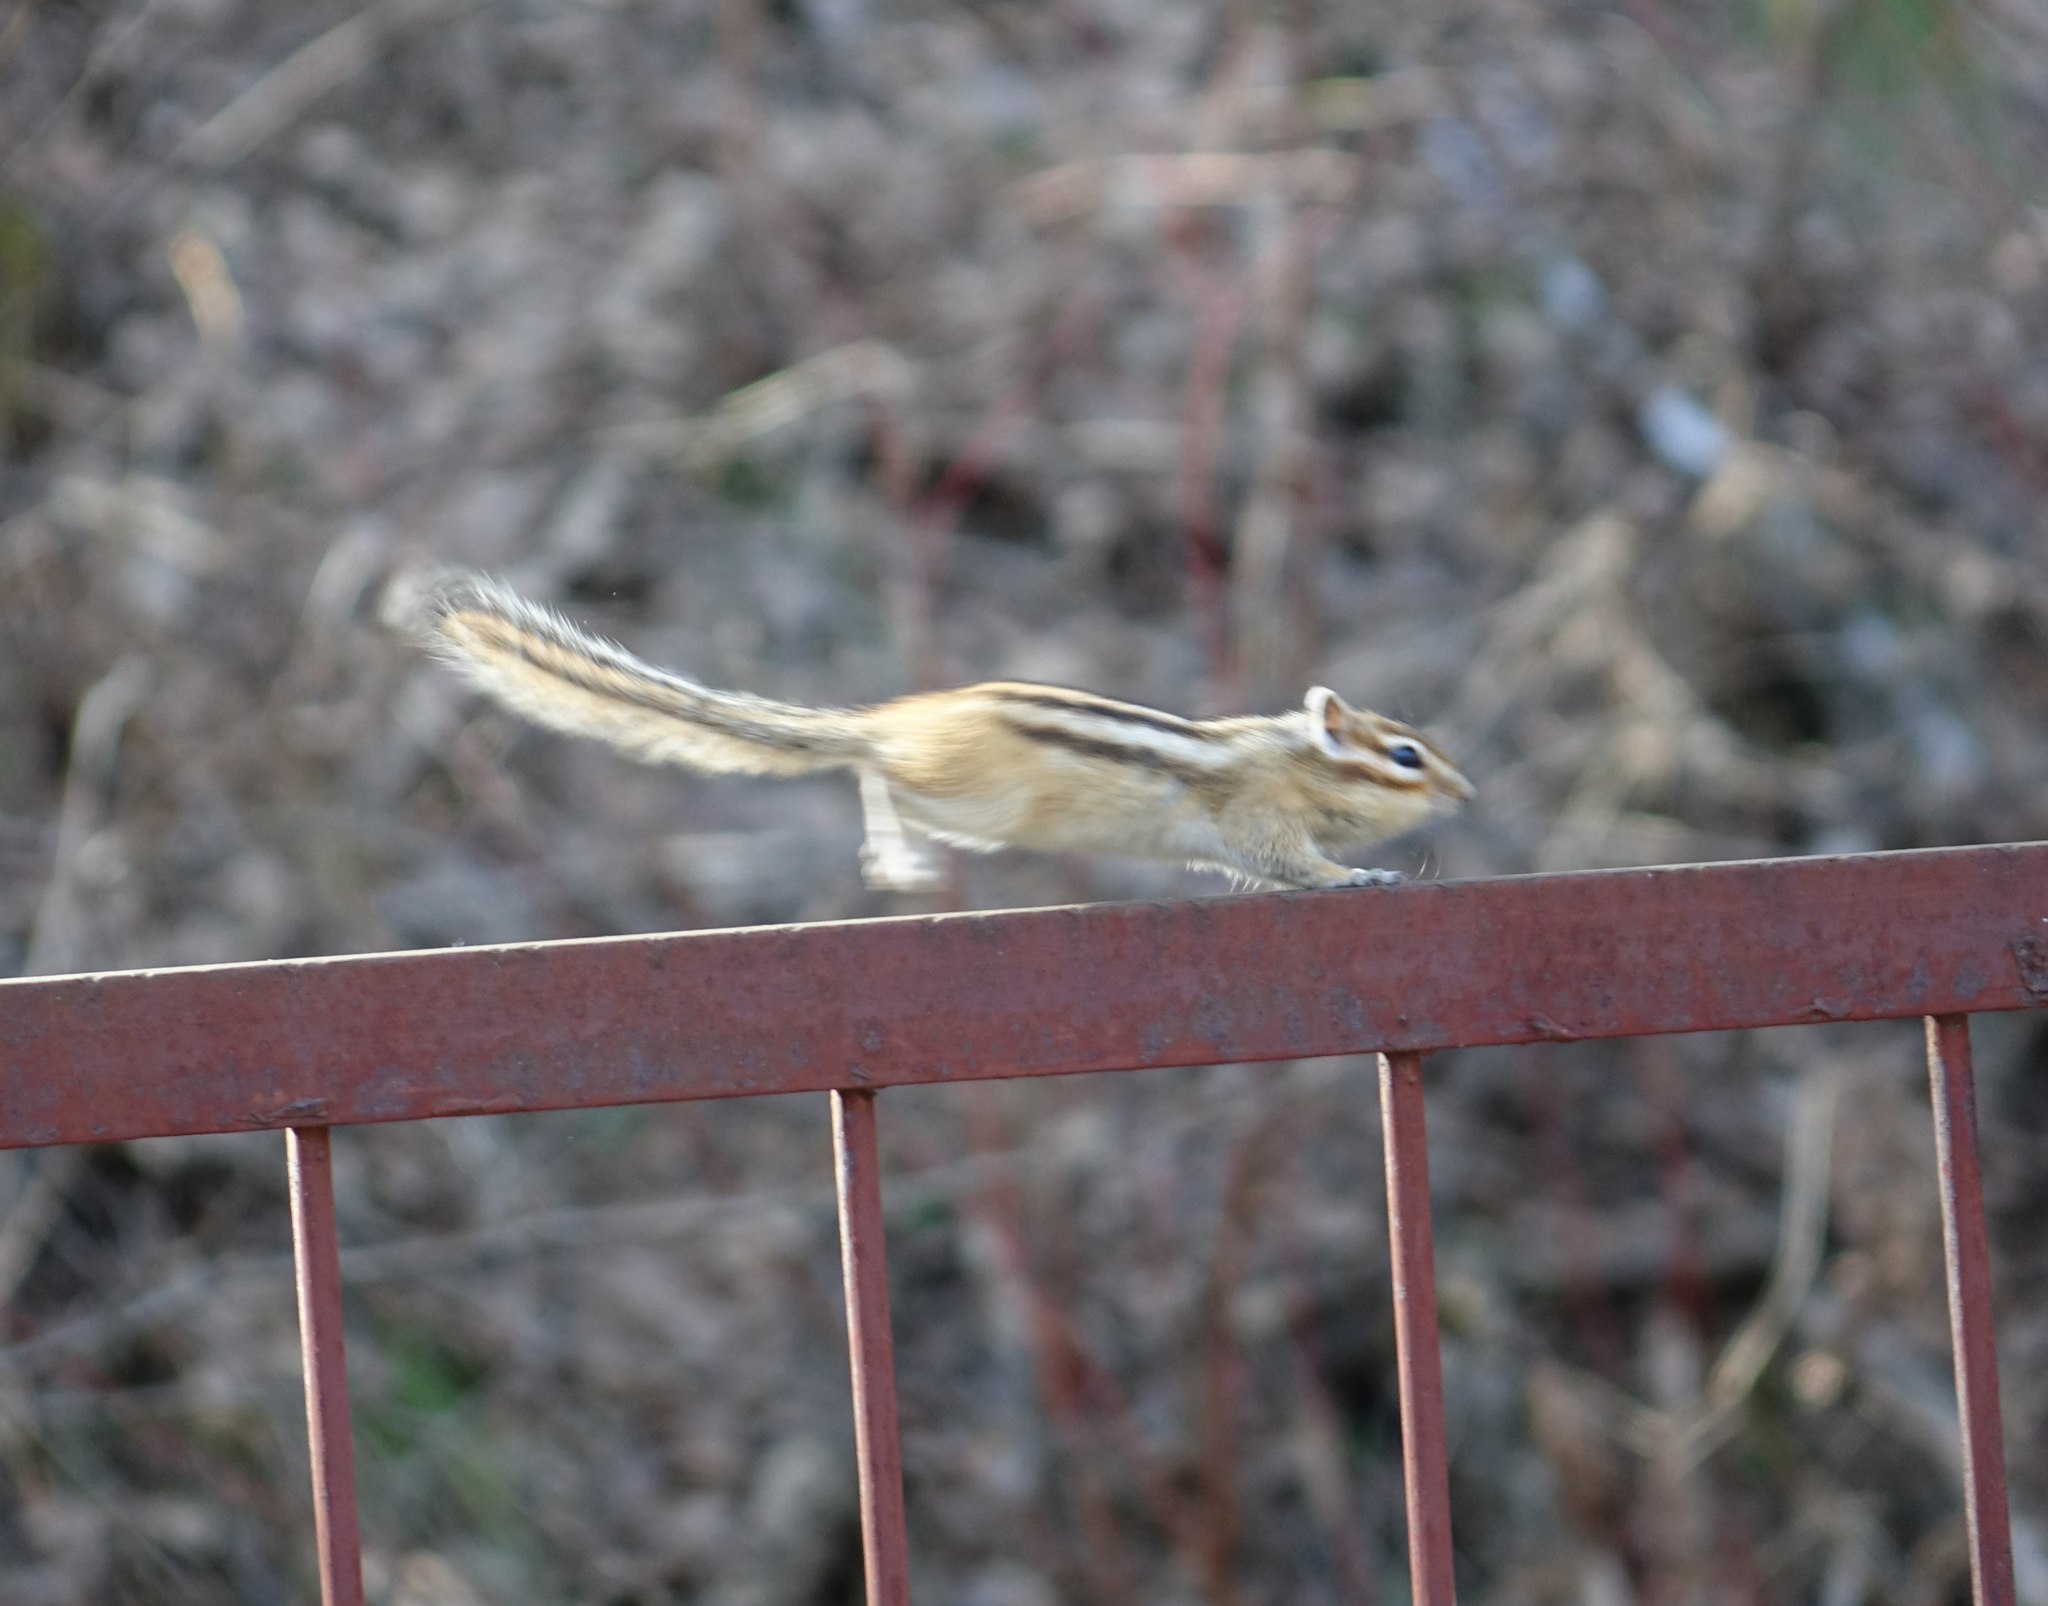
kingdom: Animalia
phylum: Chordata
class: Mammalia
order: Rodentia
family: Sciuridae
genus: Tamias
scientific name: Tamias sibiricus
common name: Siberian chipmunk
